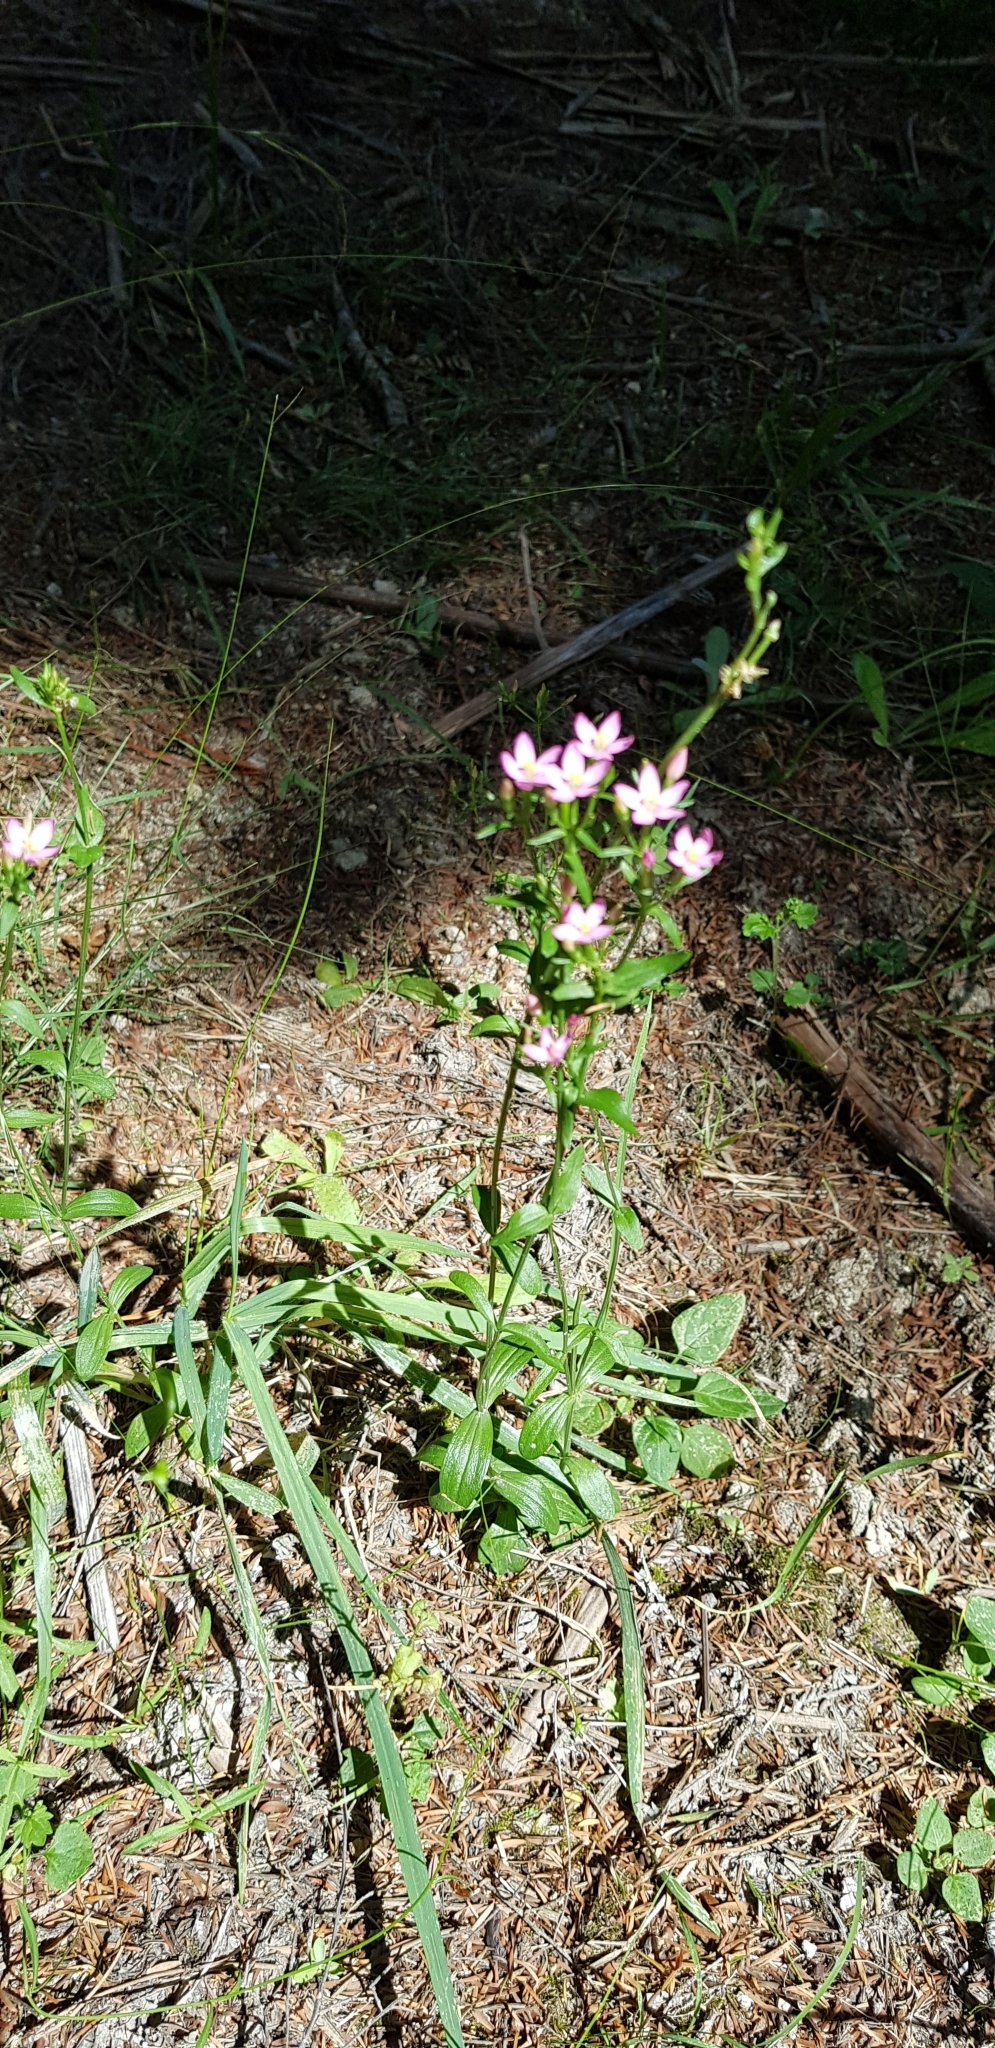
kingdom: Plantae
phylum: Tracheophyta
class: Magnoliopsida
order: Gentianales
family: Gentianaceae
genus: Centaurium
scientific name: Centaurium erythraea
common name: Common centaury
